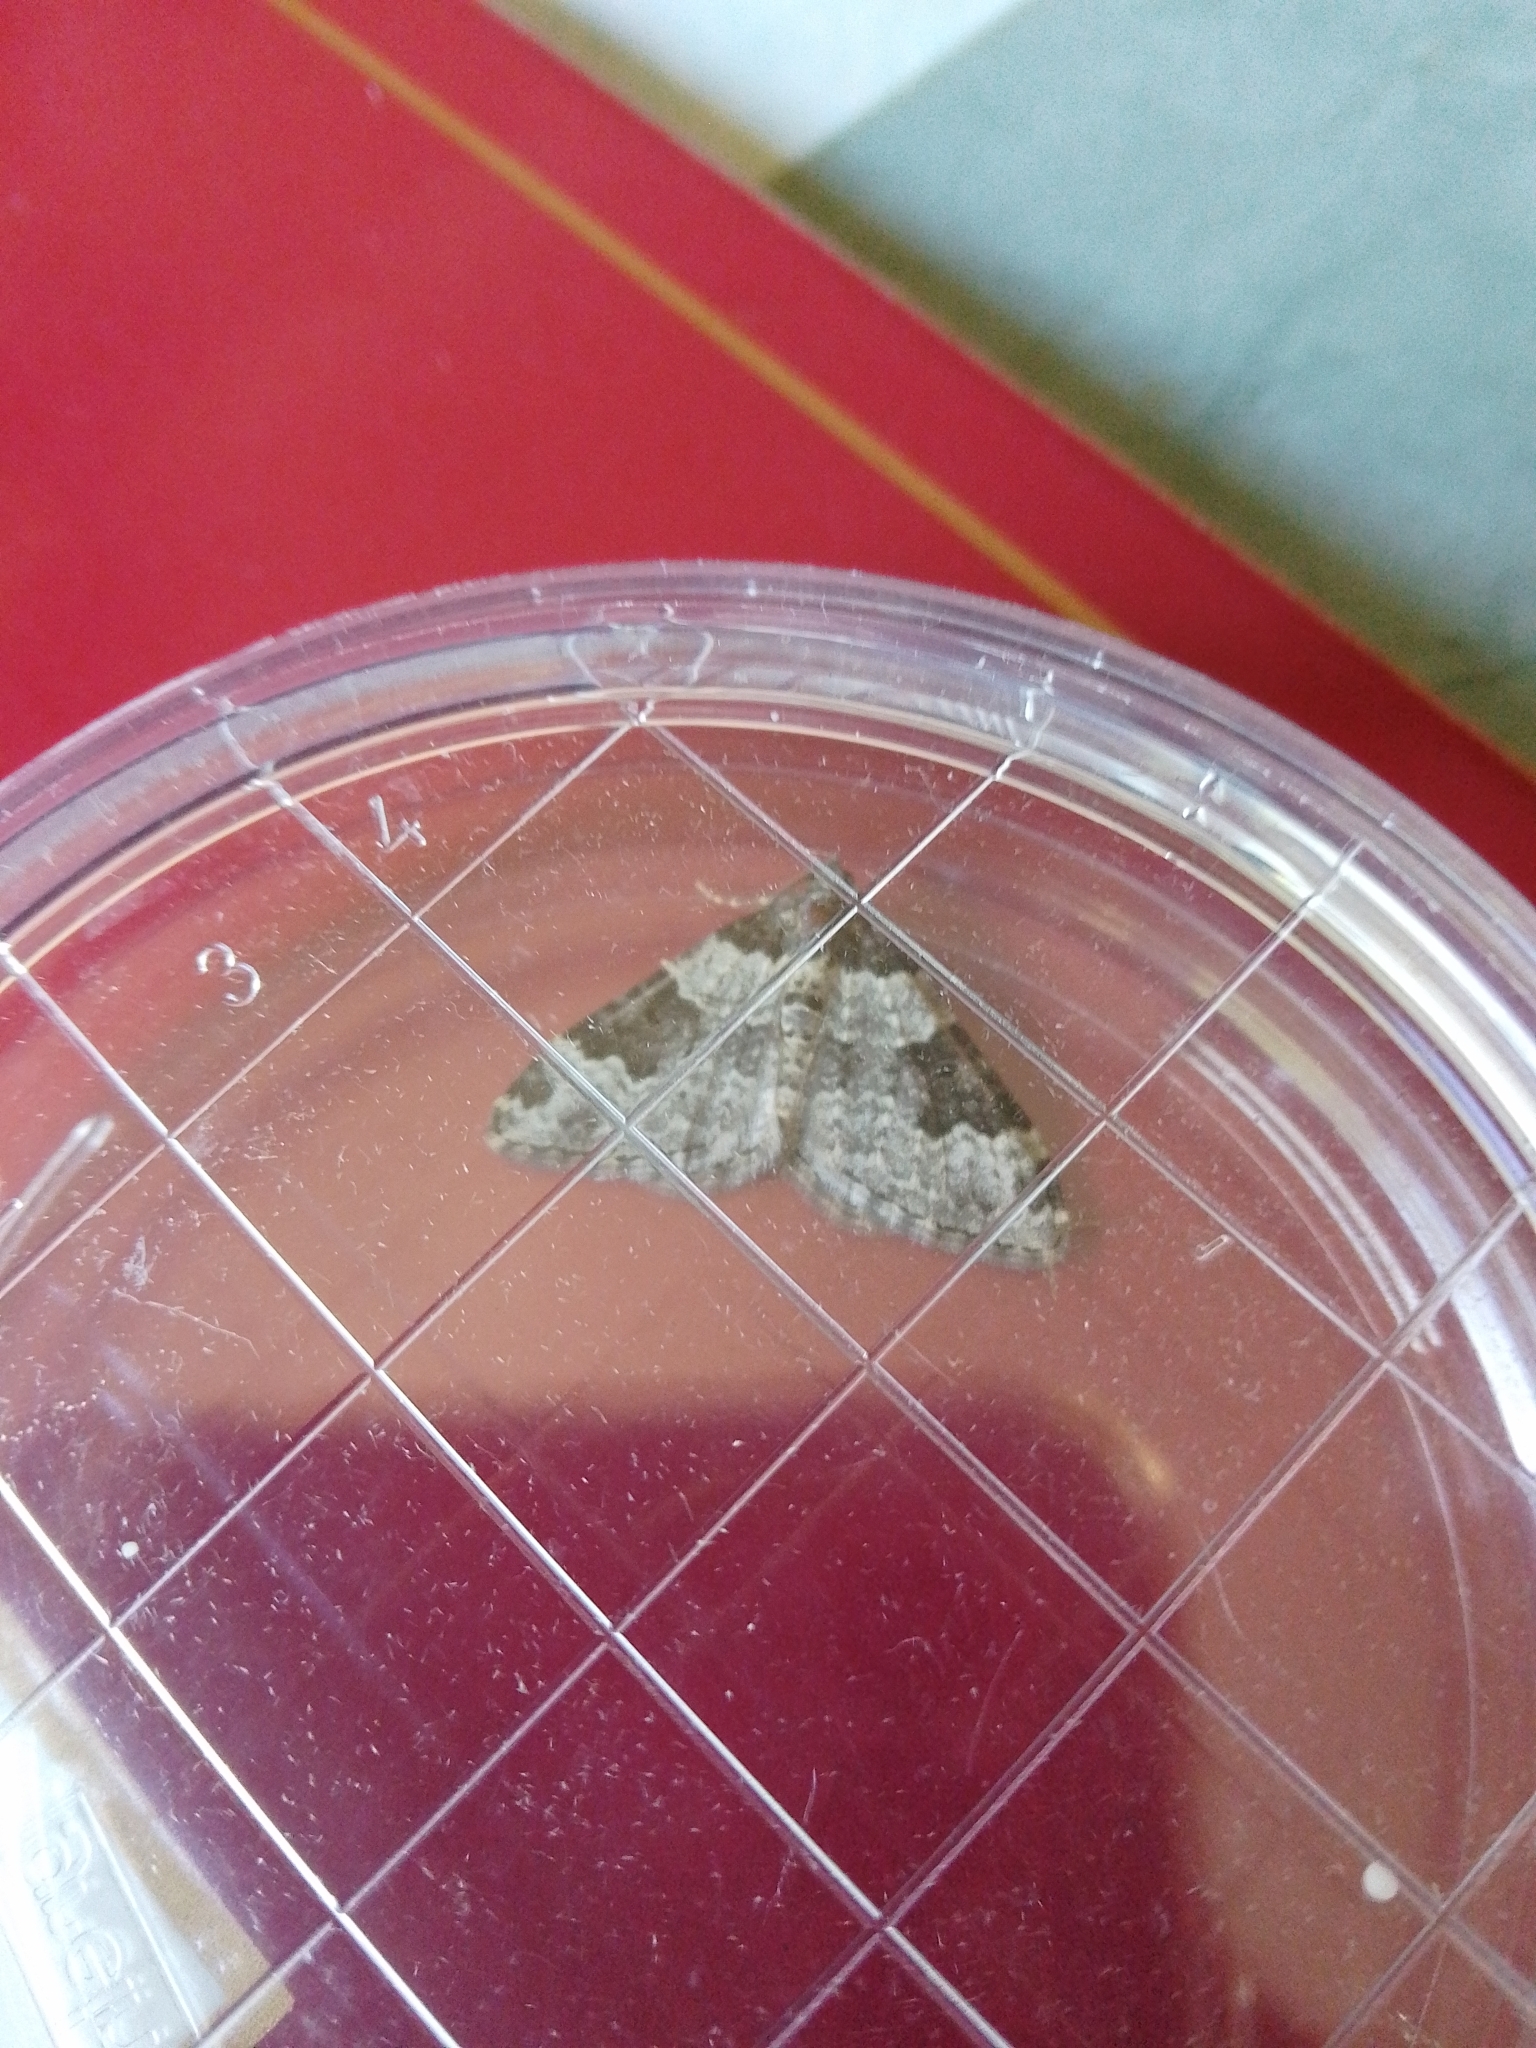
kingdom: Animalia
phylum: Arthropoda
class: Insecta
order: Lepidoptera
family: Geometridae
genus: Xanthorhoe
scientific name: Xanthorhoe fluctuata
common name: Garden carpet
